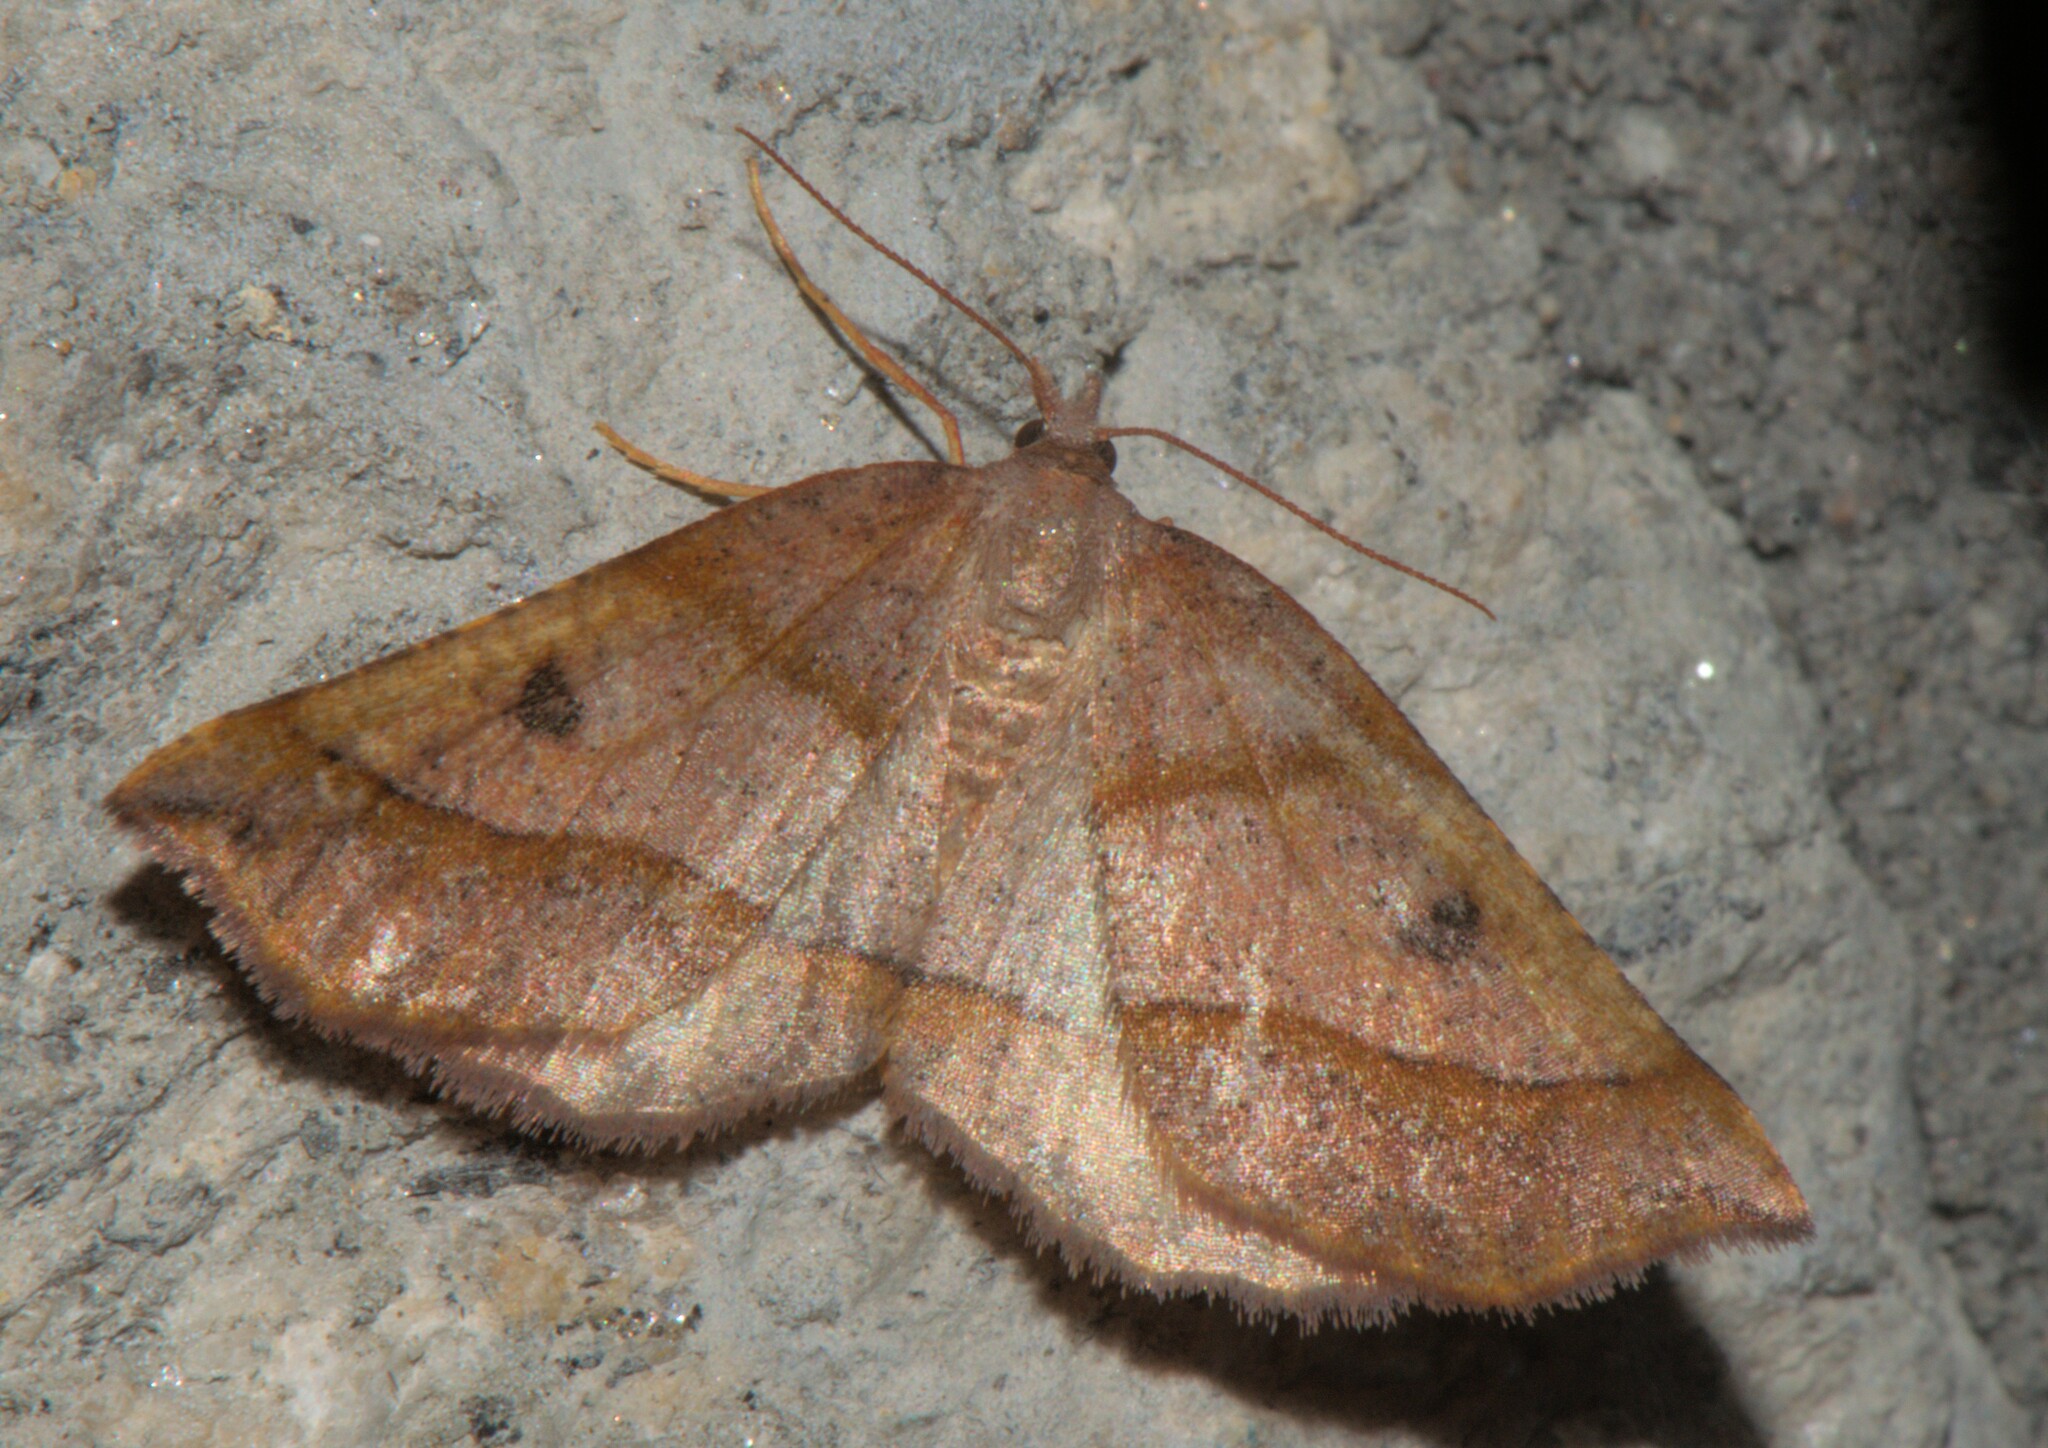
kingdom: Animalia
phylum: Arthropoda
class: Insecta
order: Lepidoptera
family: Geometridae
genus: Artemidora
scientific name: Artemidora epicyrta
